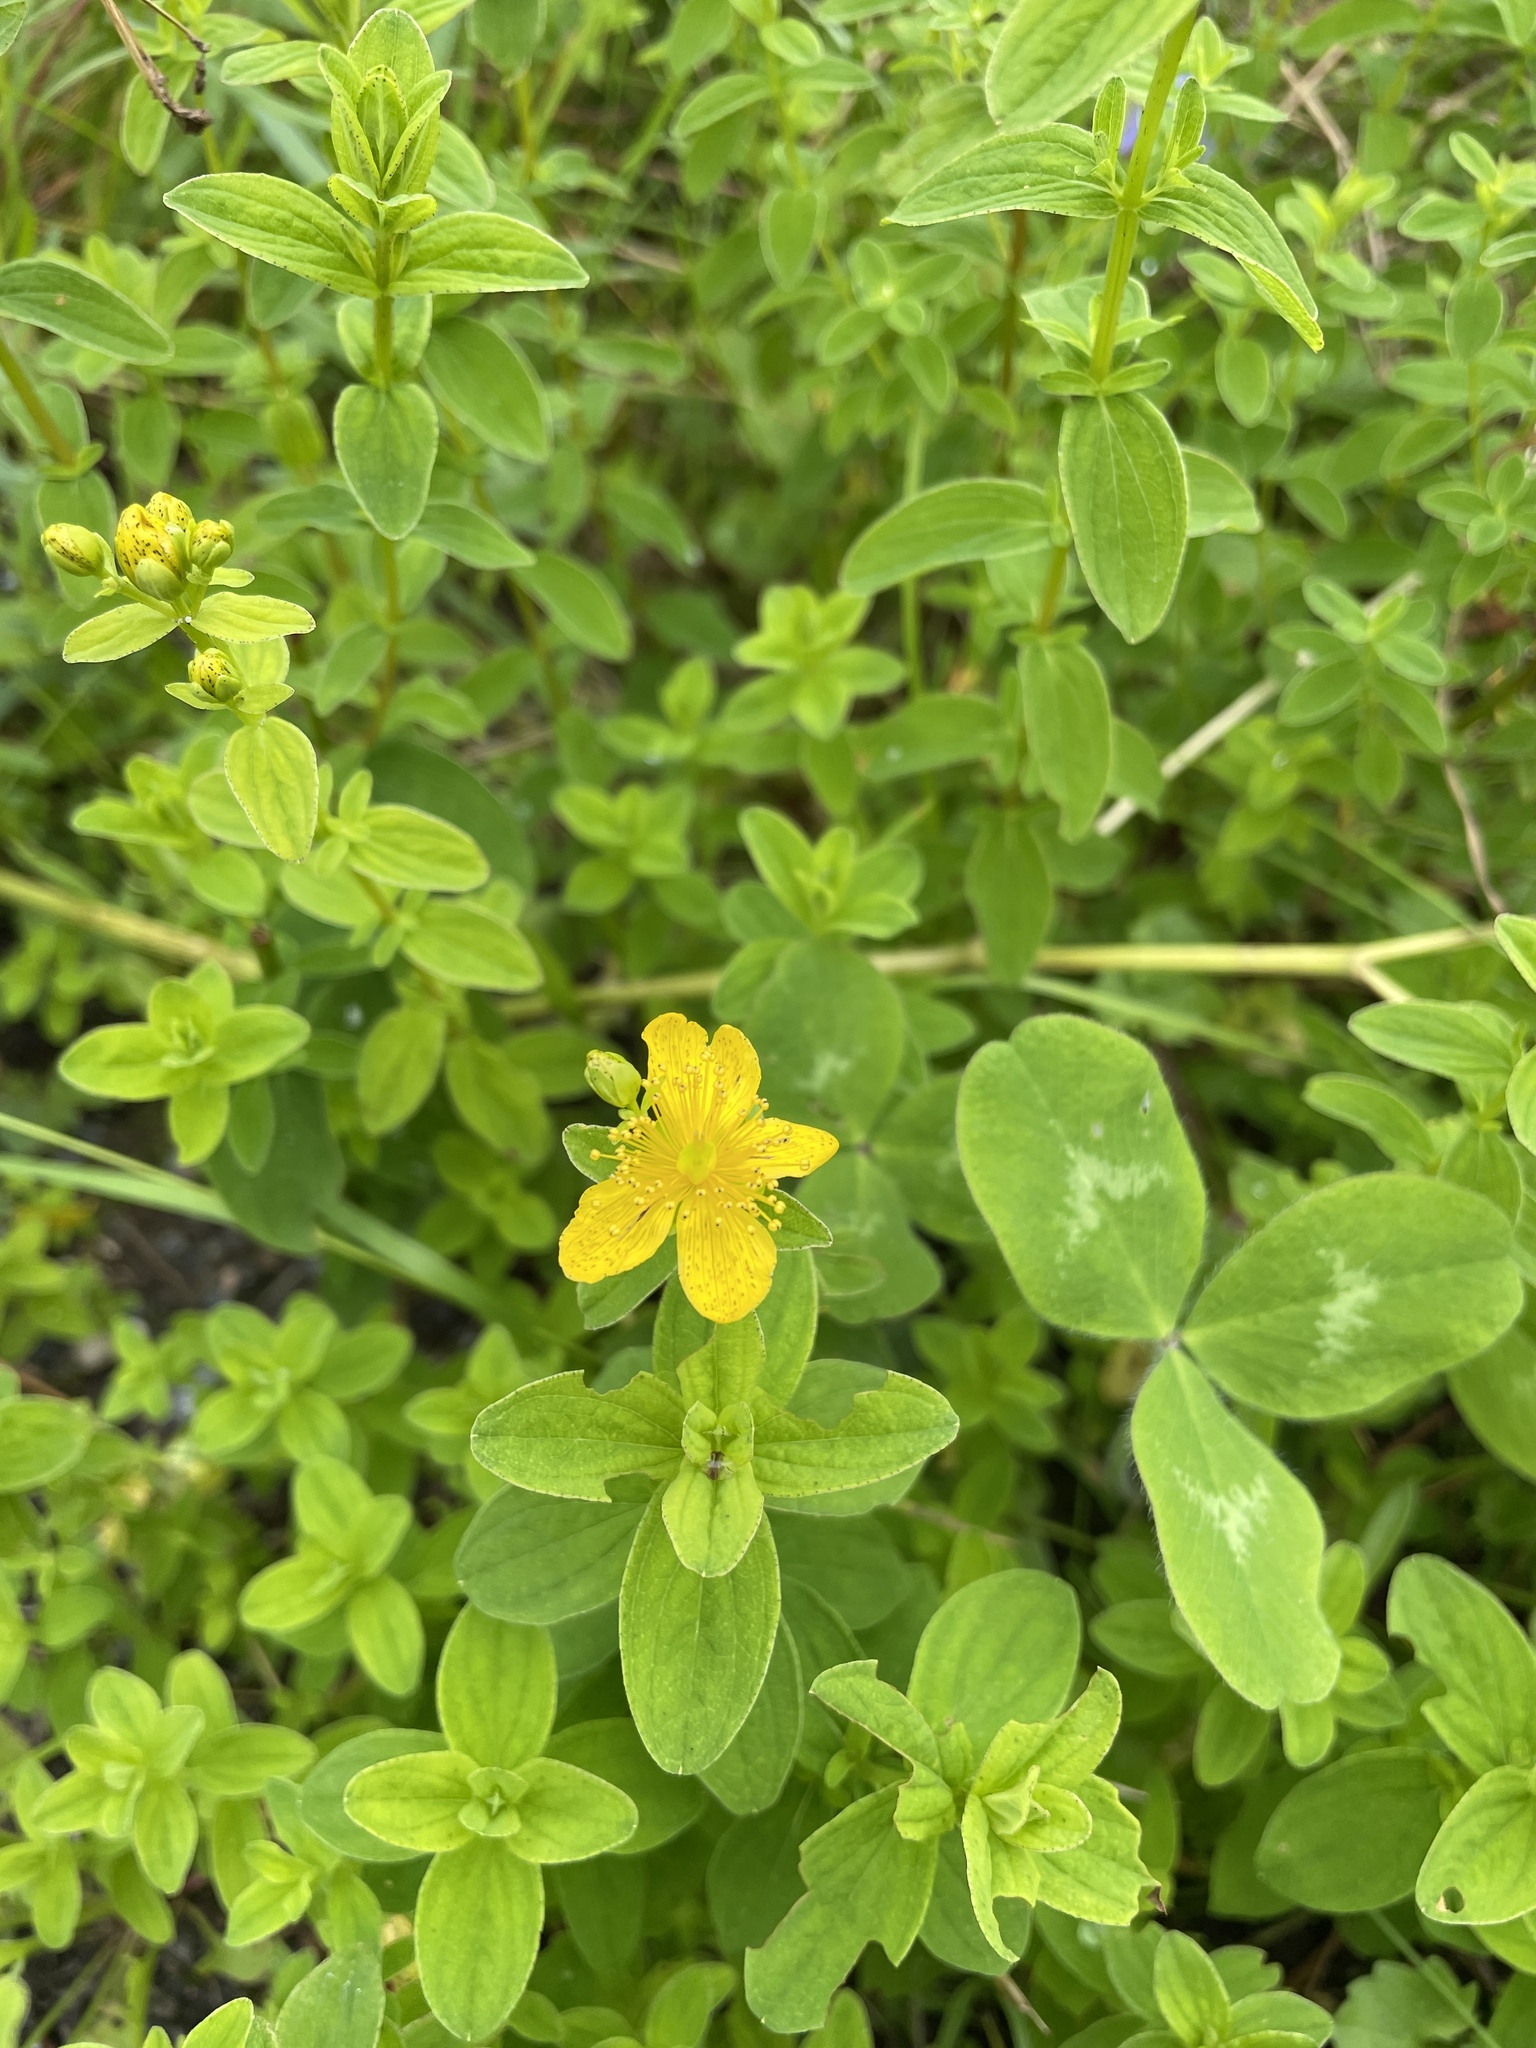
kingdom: Plantae
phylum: Tracheophyta
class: Magnoliopsida
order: Malpighiales
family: Hypericaceae
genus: Hypericum
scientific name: Hypericum maculatum
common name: Imperforate st. john's-wort
